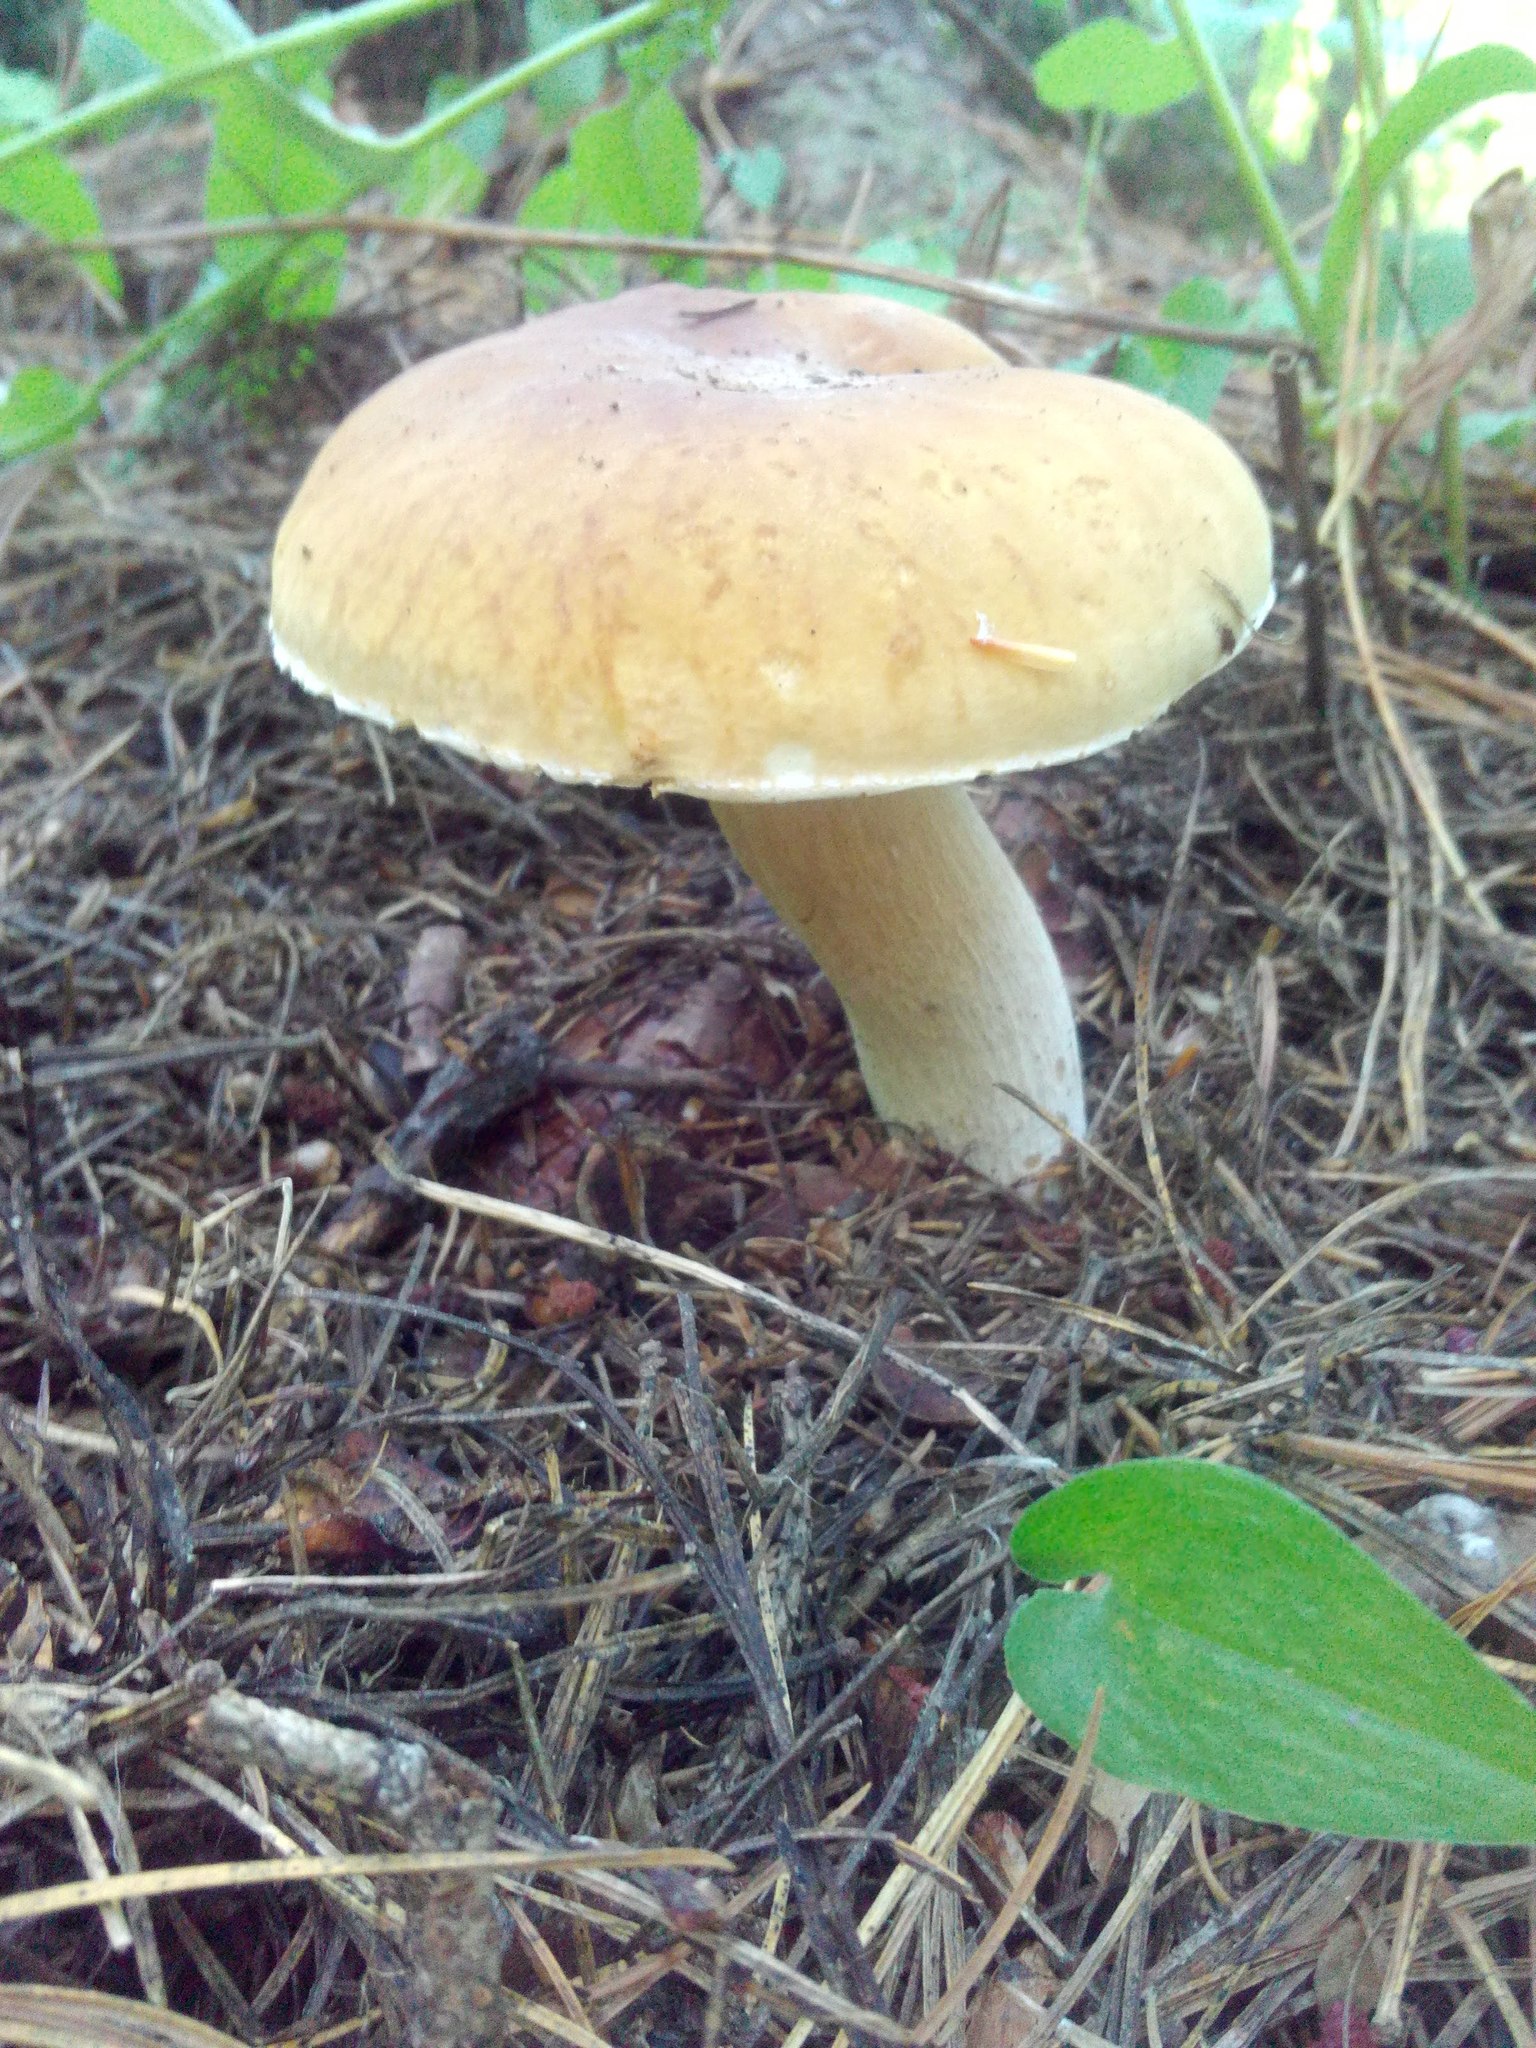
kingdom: Fungi
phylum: Basidiomycota
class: Agaricomycetes
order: Boletales
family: Boletaceae
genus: Boletus
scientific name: Boletus edulis
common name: Cep
